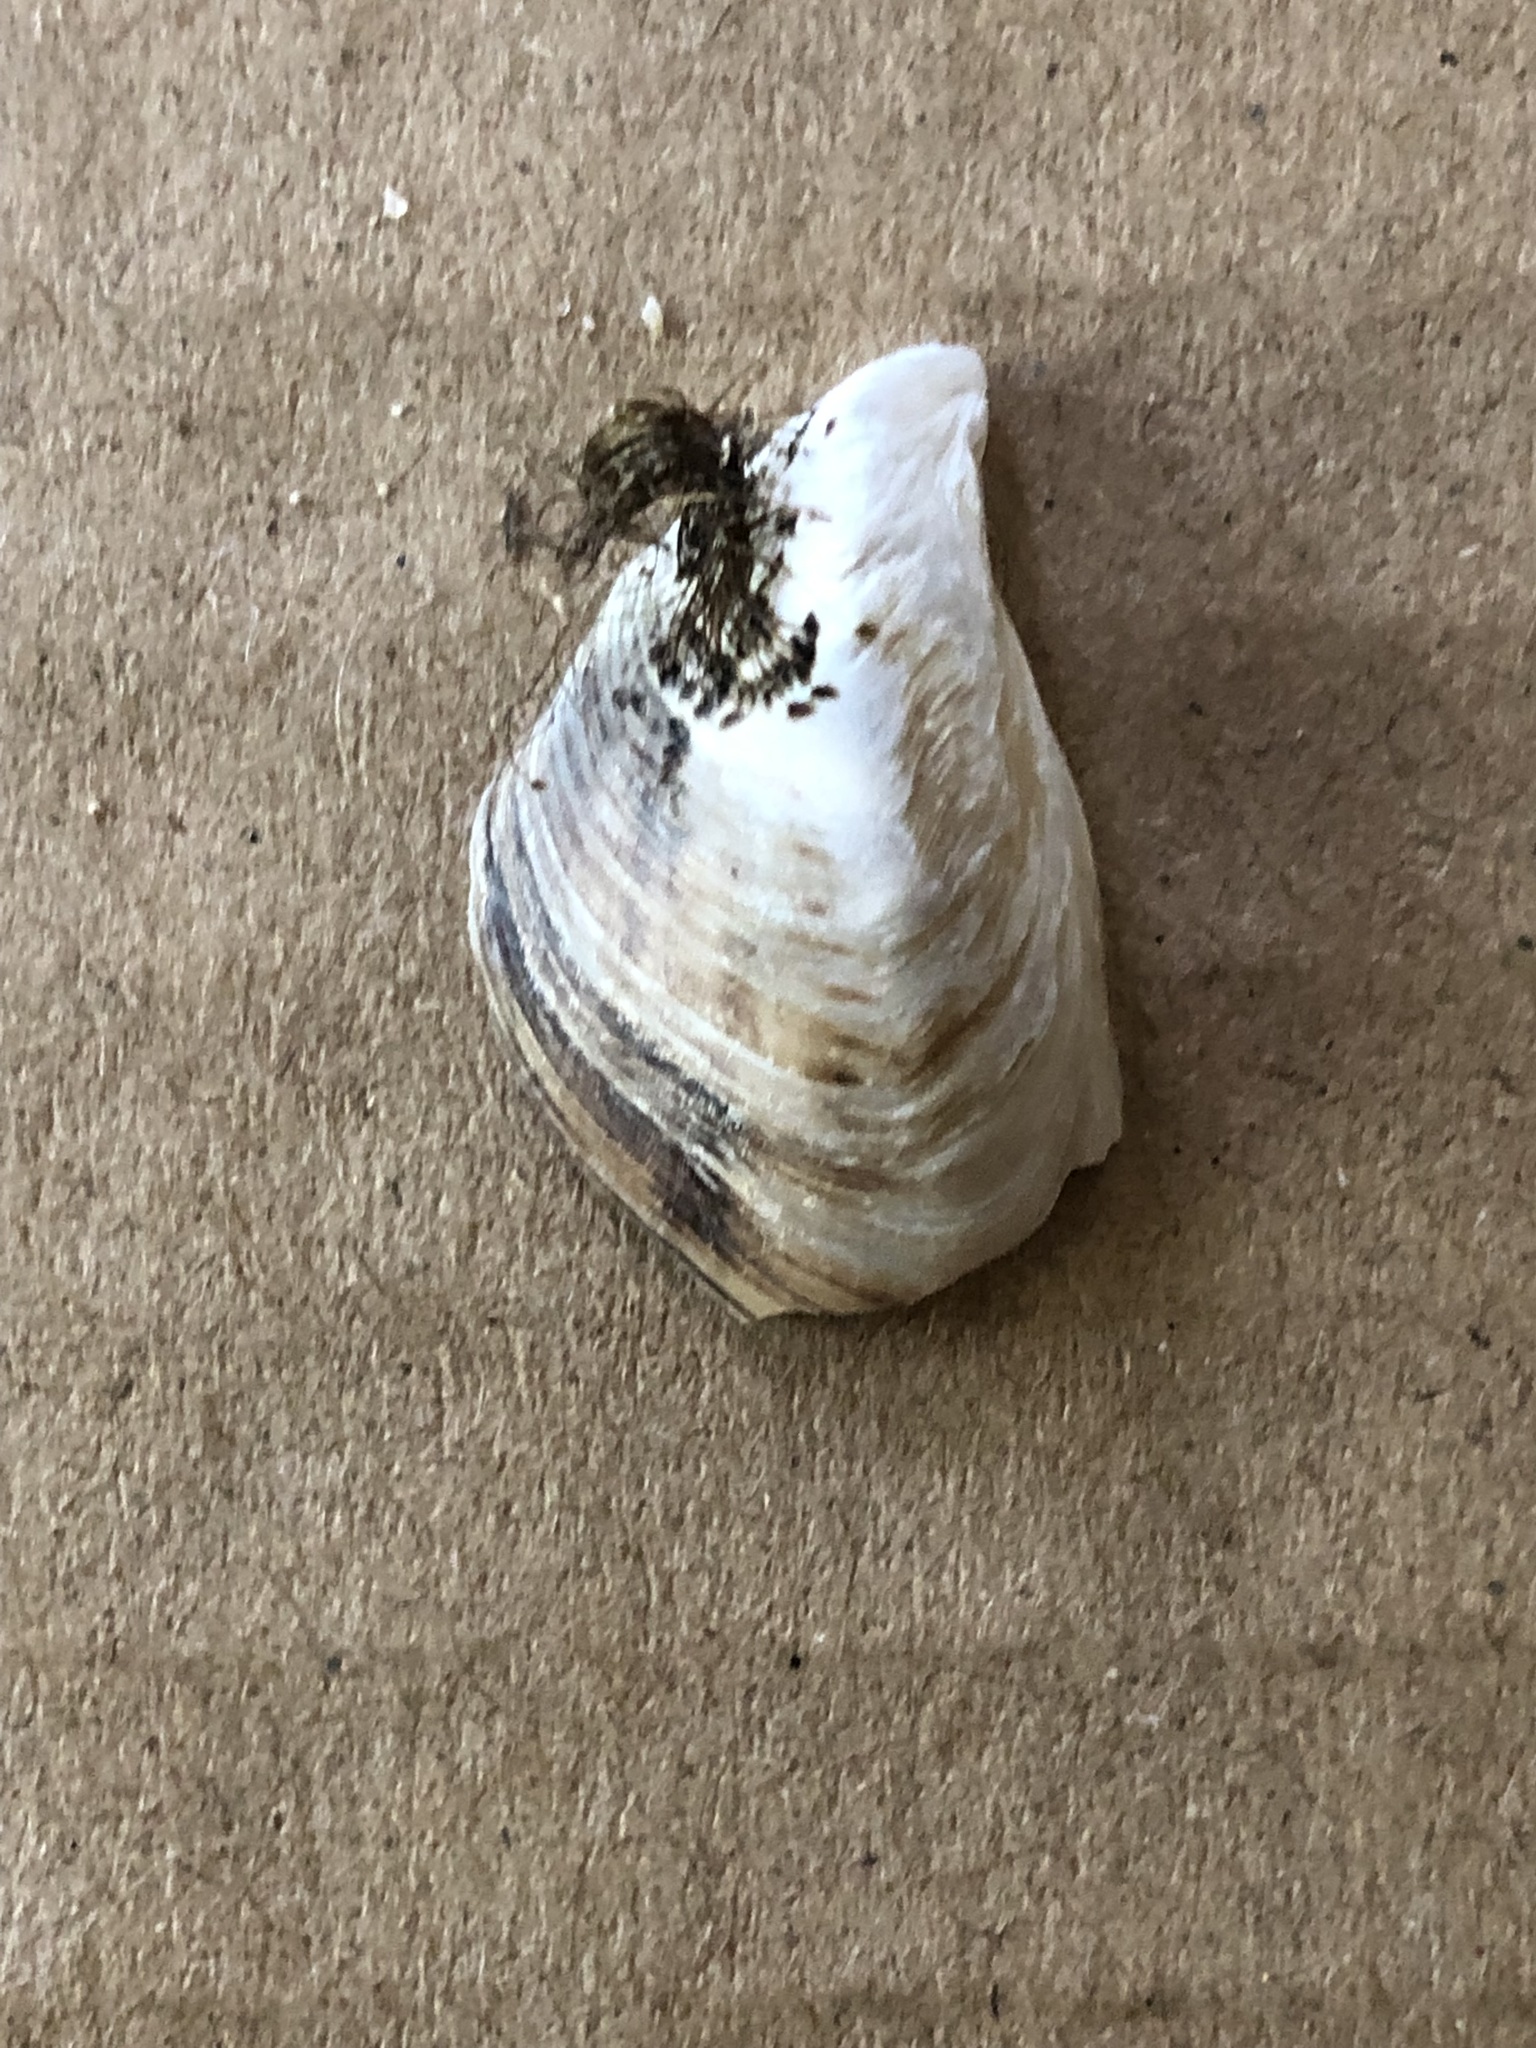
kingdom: Animalia
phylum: Mollusca
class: Bivalvia
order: Myida
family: Dreissenidae
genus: Dreissena
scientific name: Dreissena bugensis
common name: Quagga mussel
